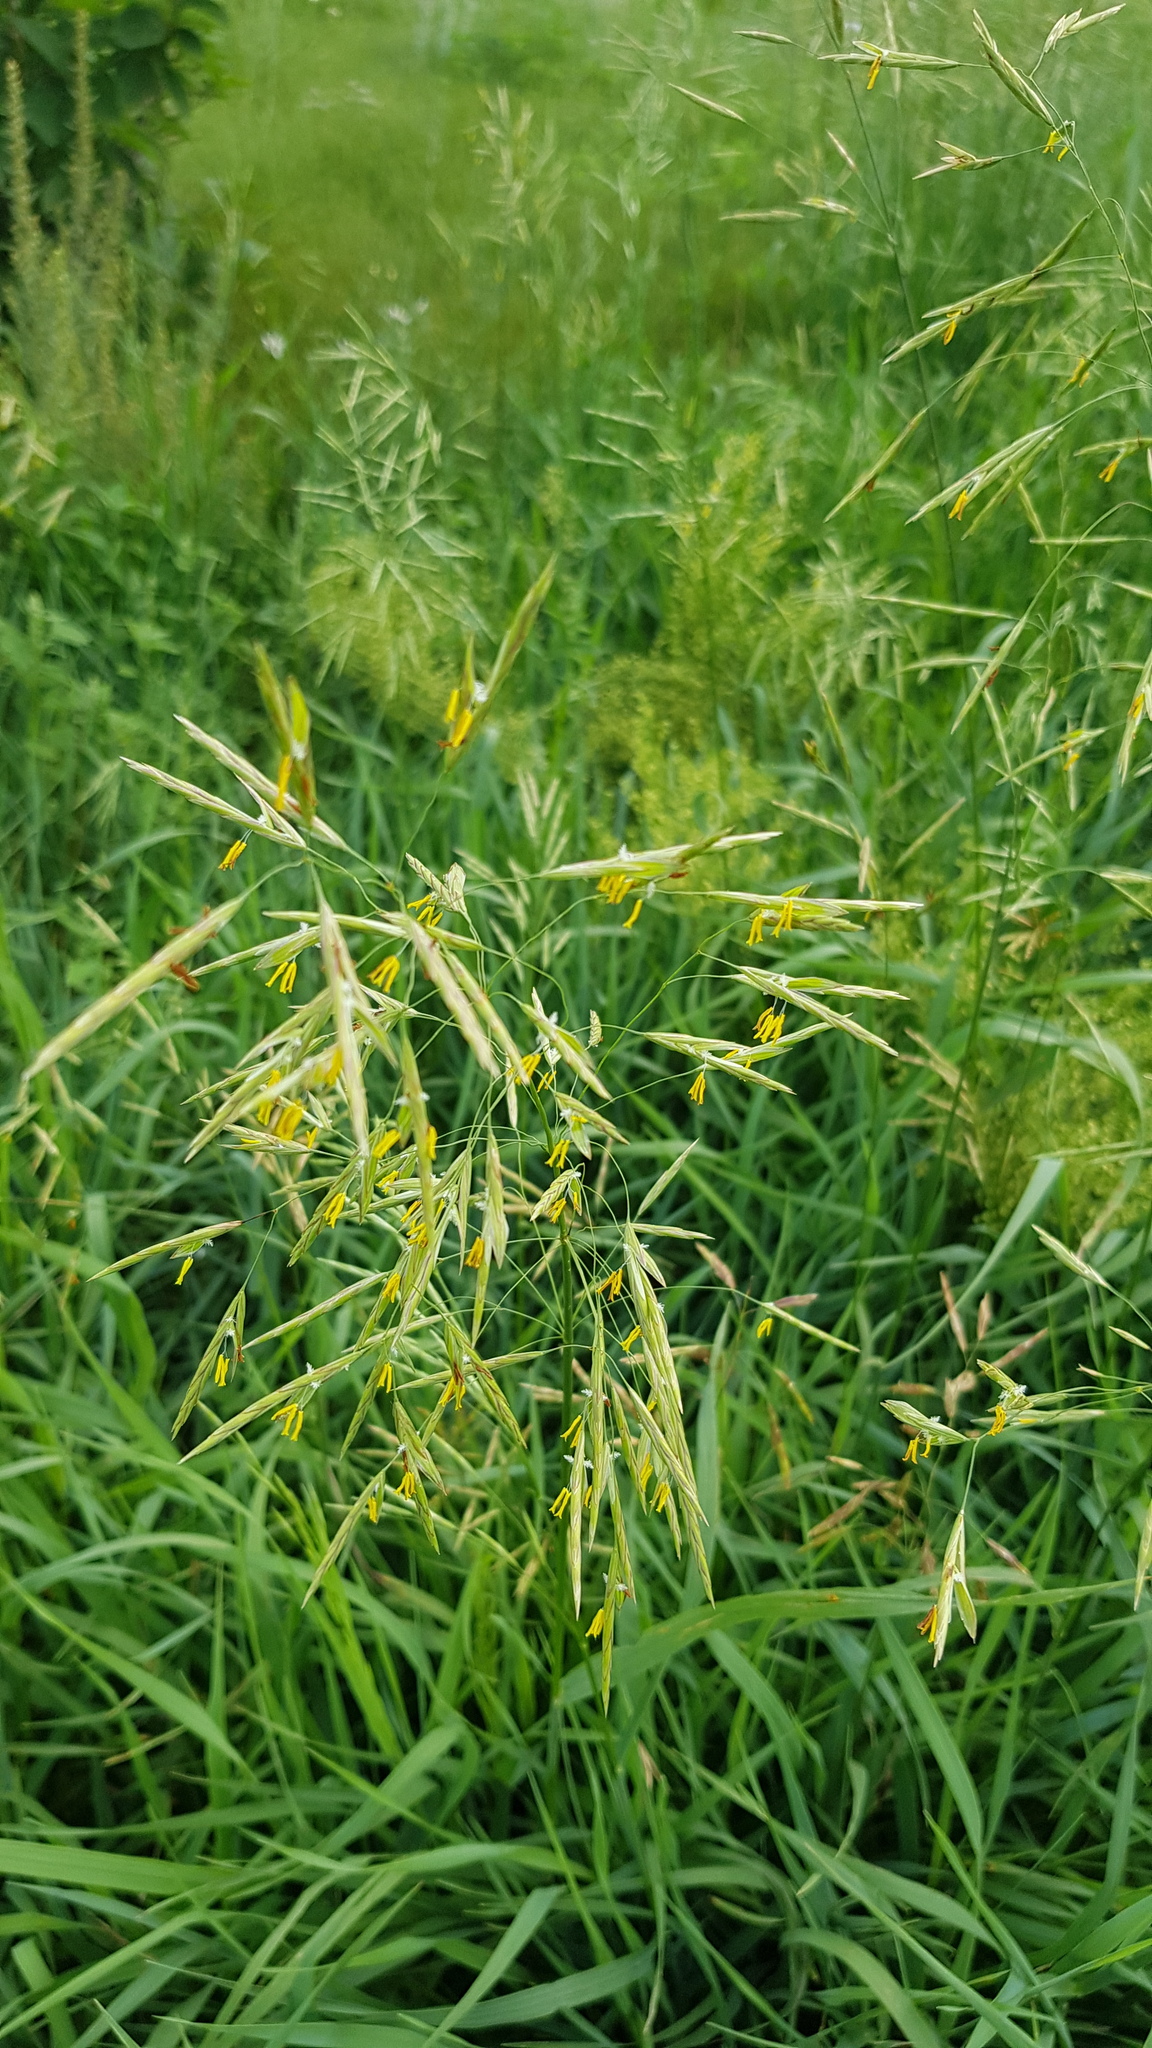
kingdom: Plantae
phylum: Tracheophyta
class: Liliopsida
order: Poales
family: Poaceae
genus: Bromus
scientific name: Bromus inermis
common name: Smooth brome
